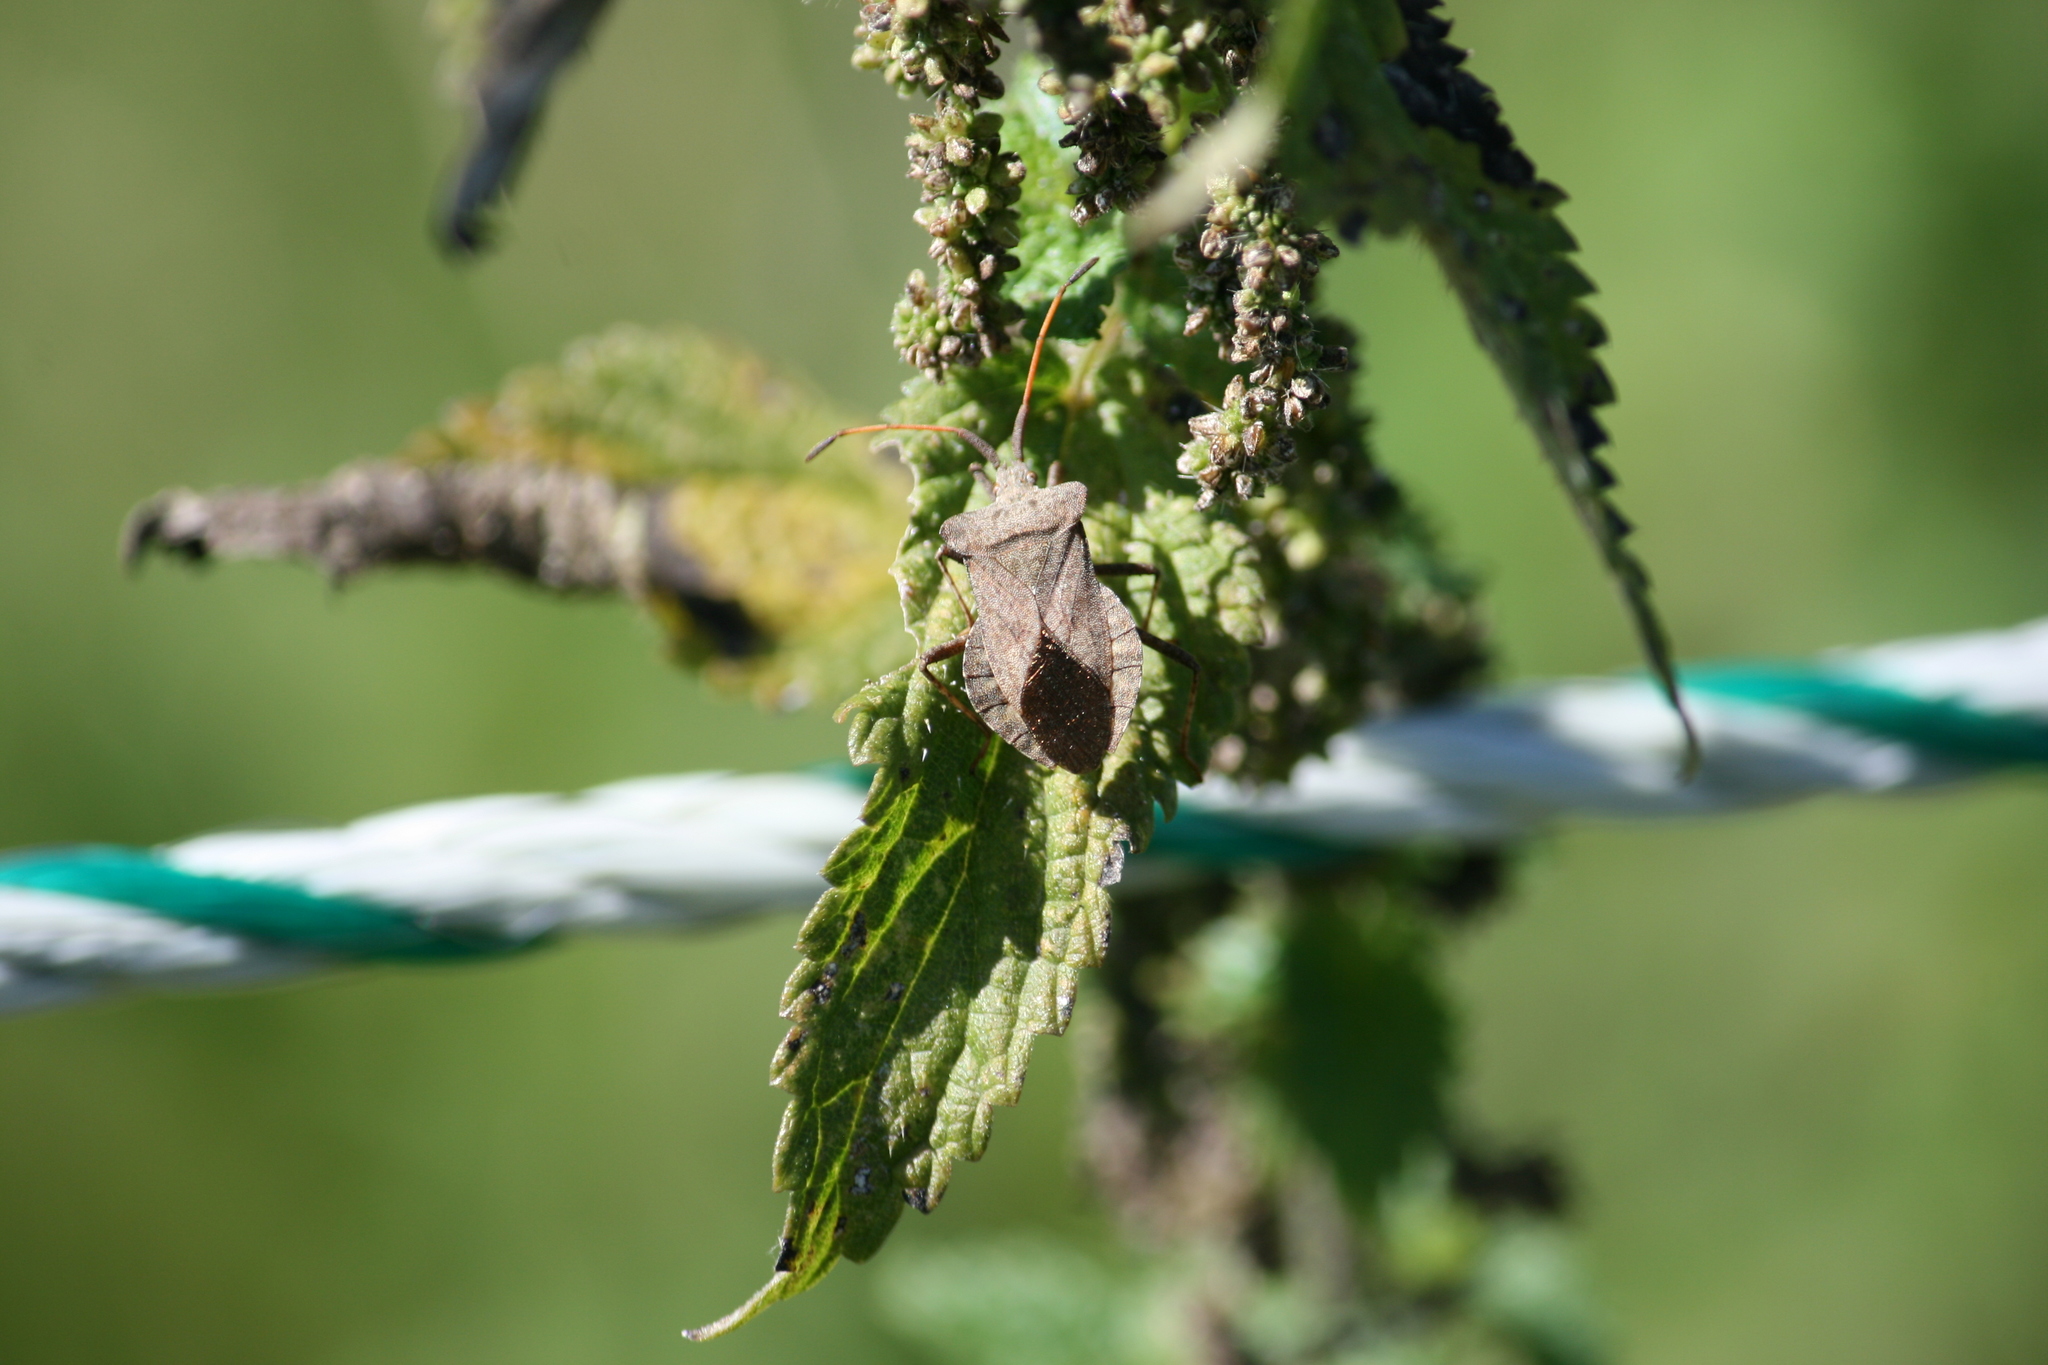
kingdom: Animalia
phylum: Arthropoda
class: Insecta
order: Hemiptera
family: Coreidae
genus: Coreus
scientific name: Coreus marginatus
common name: Dock bug
